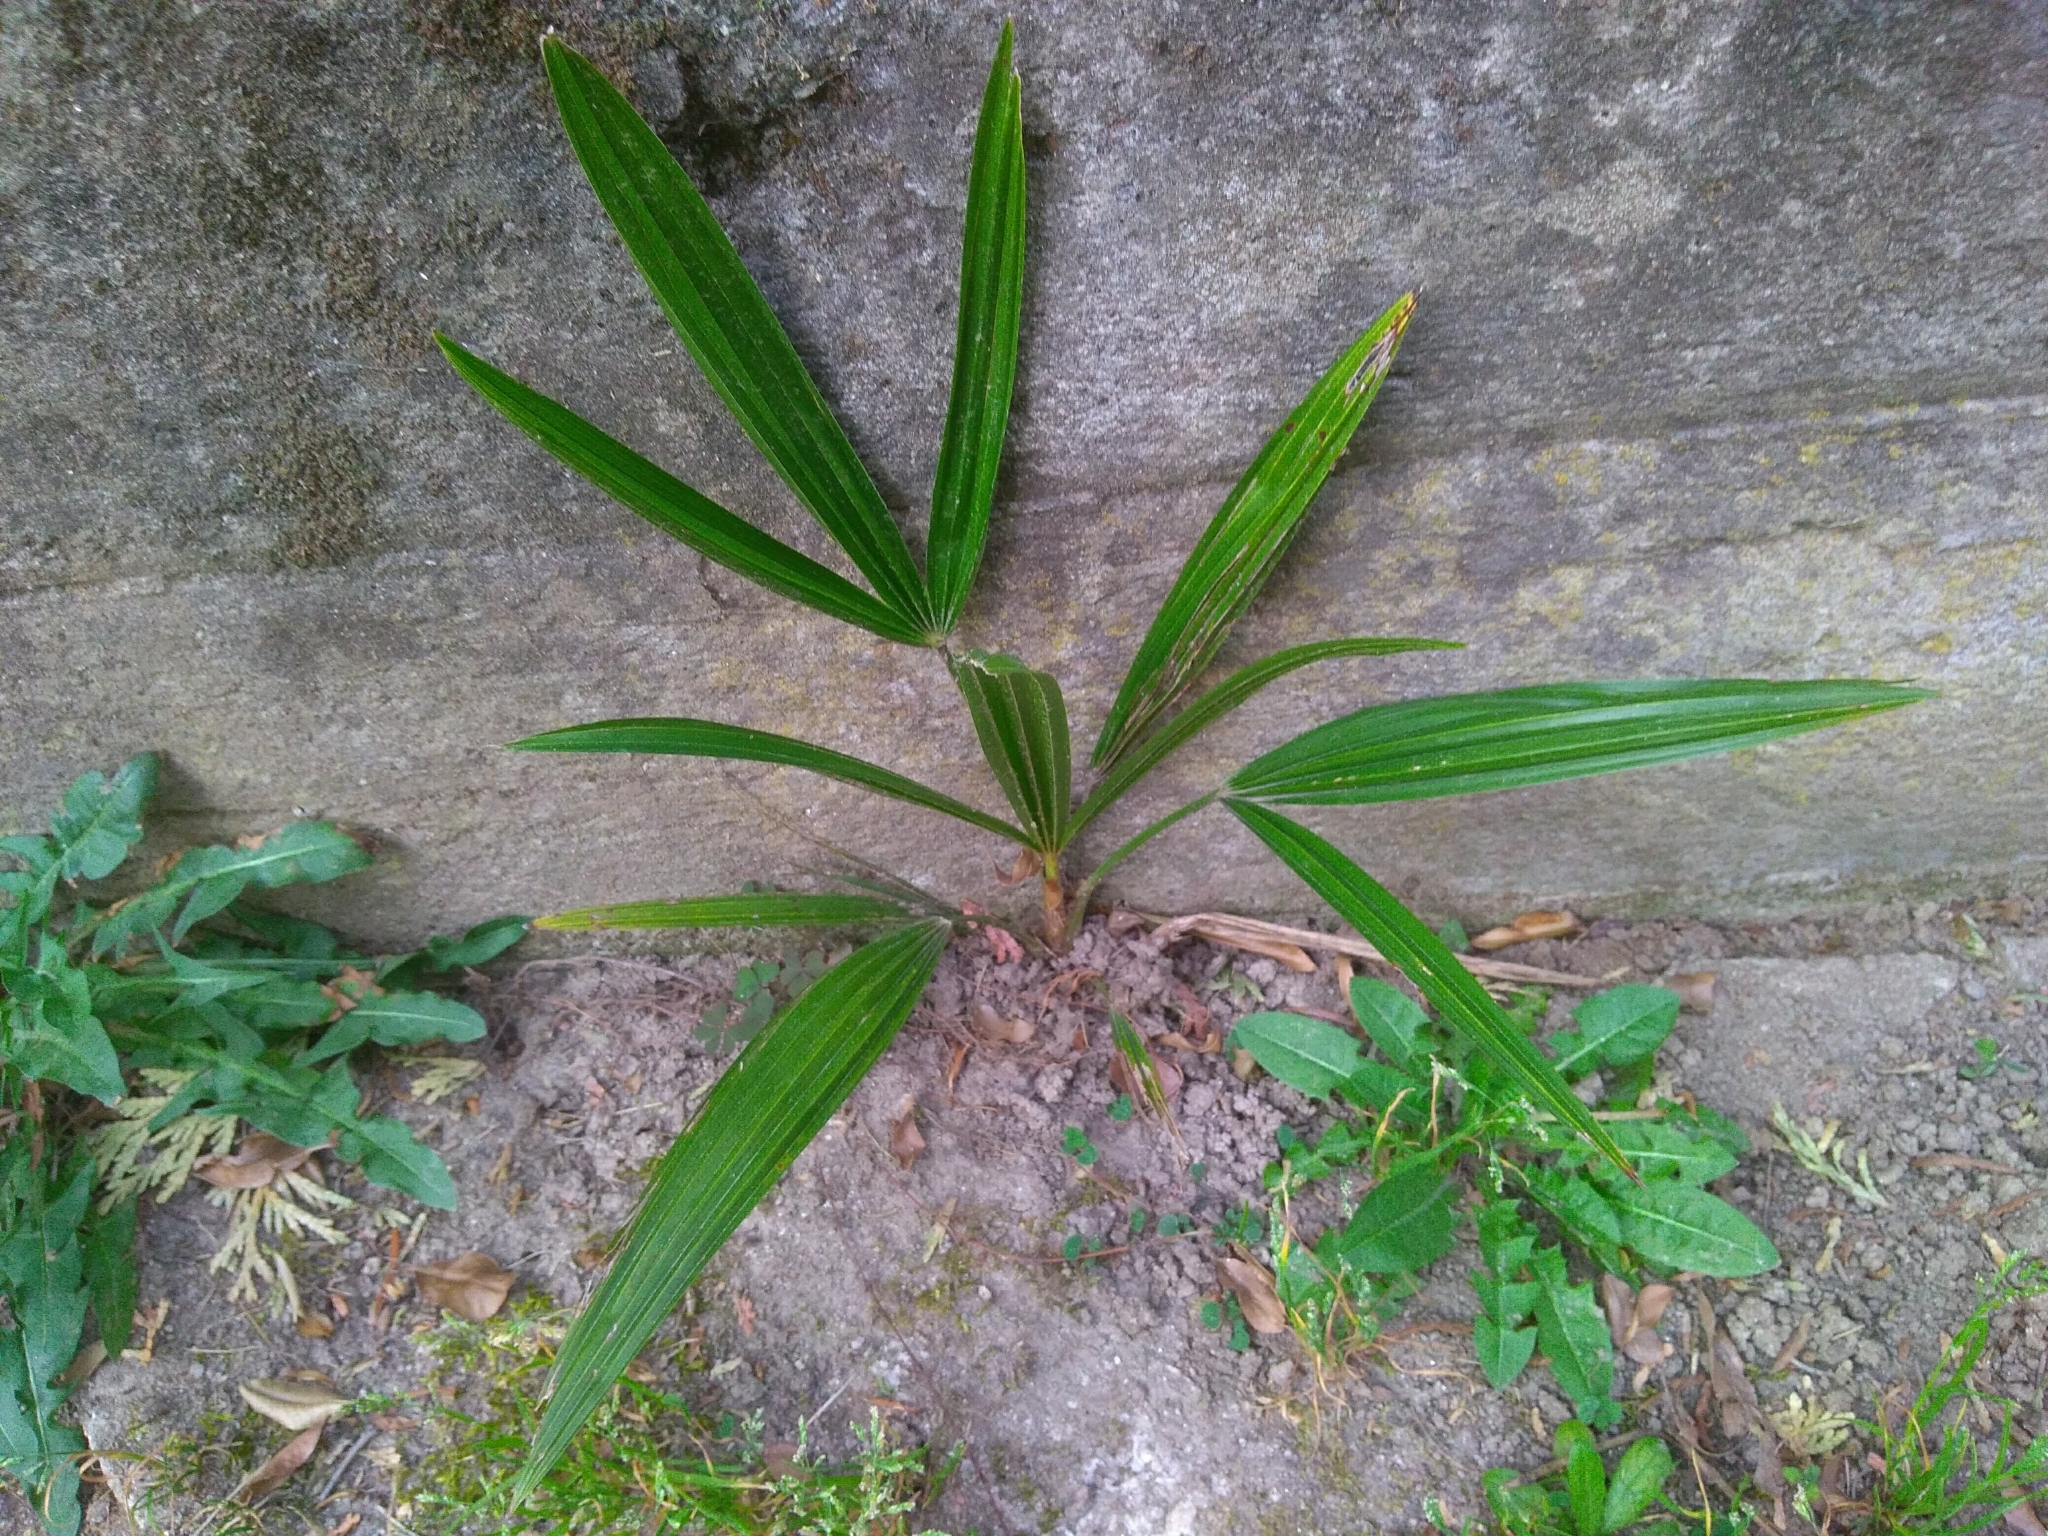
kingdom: Plantae
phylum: Tracheophyta
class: Liliopsida
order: Arecales
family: Arecaceae
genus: Trachycarpus
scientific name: Trachycarpus fortunei
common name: Chusan palm
